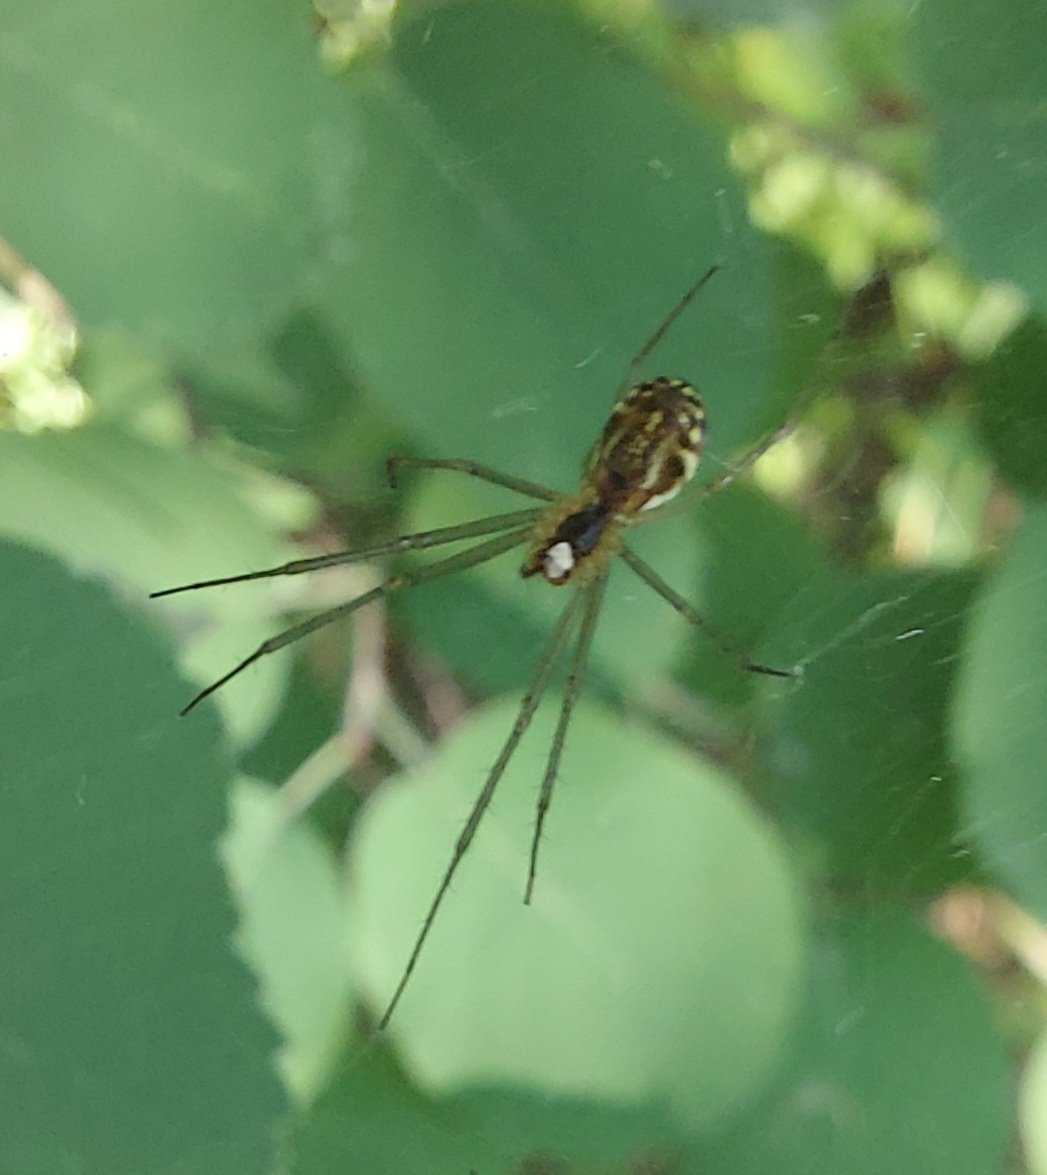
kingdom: Animalia
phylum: Arthropoda
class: Arachnida
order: Araneae
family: Linyphiidae
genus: Neriene
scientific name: Neriene radiata
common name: Filmy dome spider
